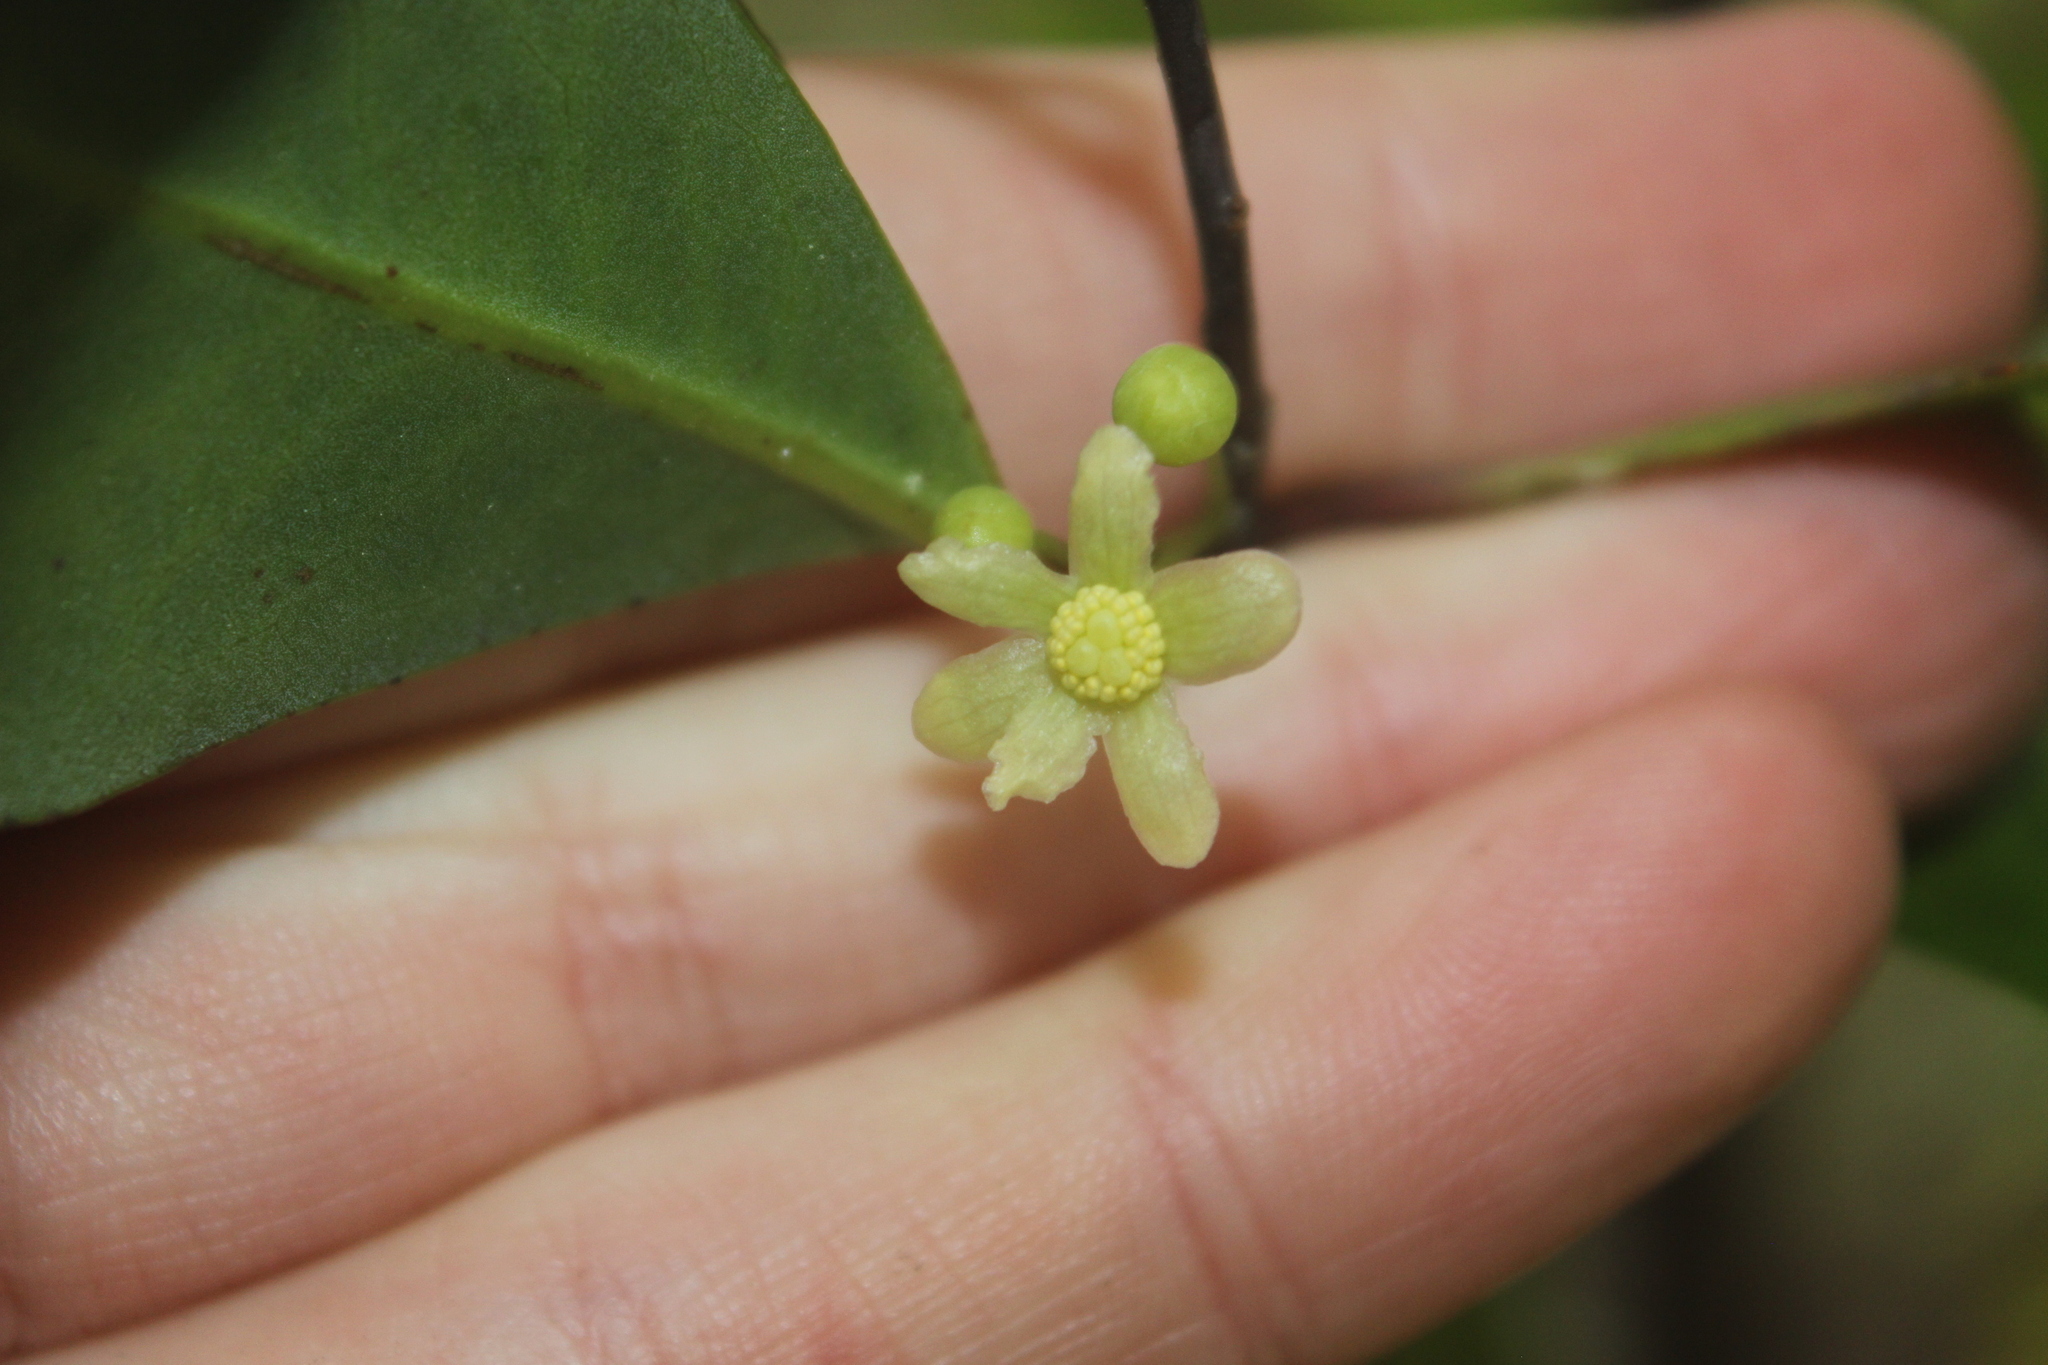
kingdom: Plantae
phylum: Tracheophyta
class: Magnoliopsida
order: Canellales
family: Winteraceae
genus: Pseudowintera
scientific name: Pseudowintera axillaris
